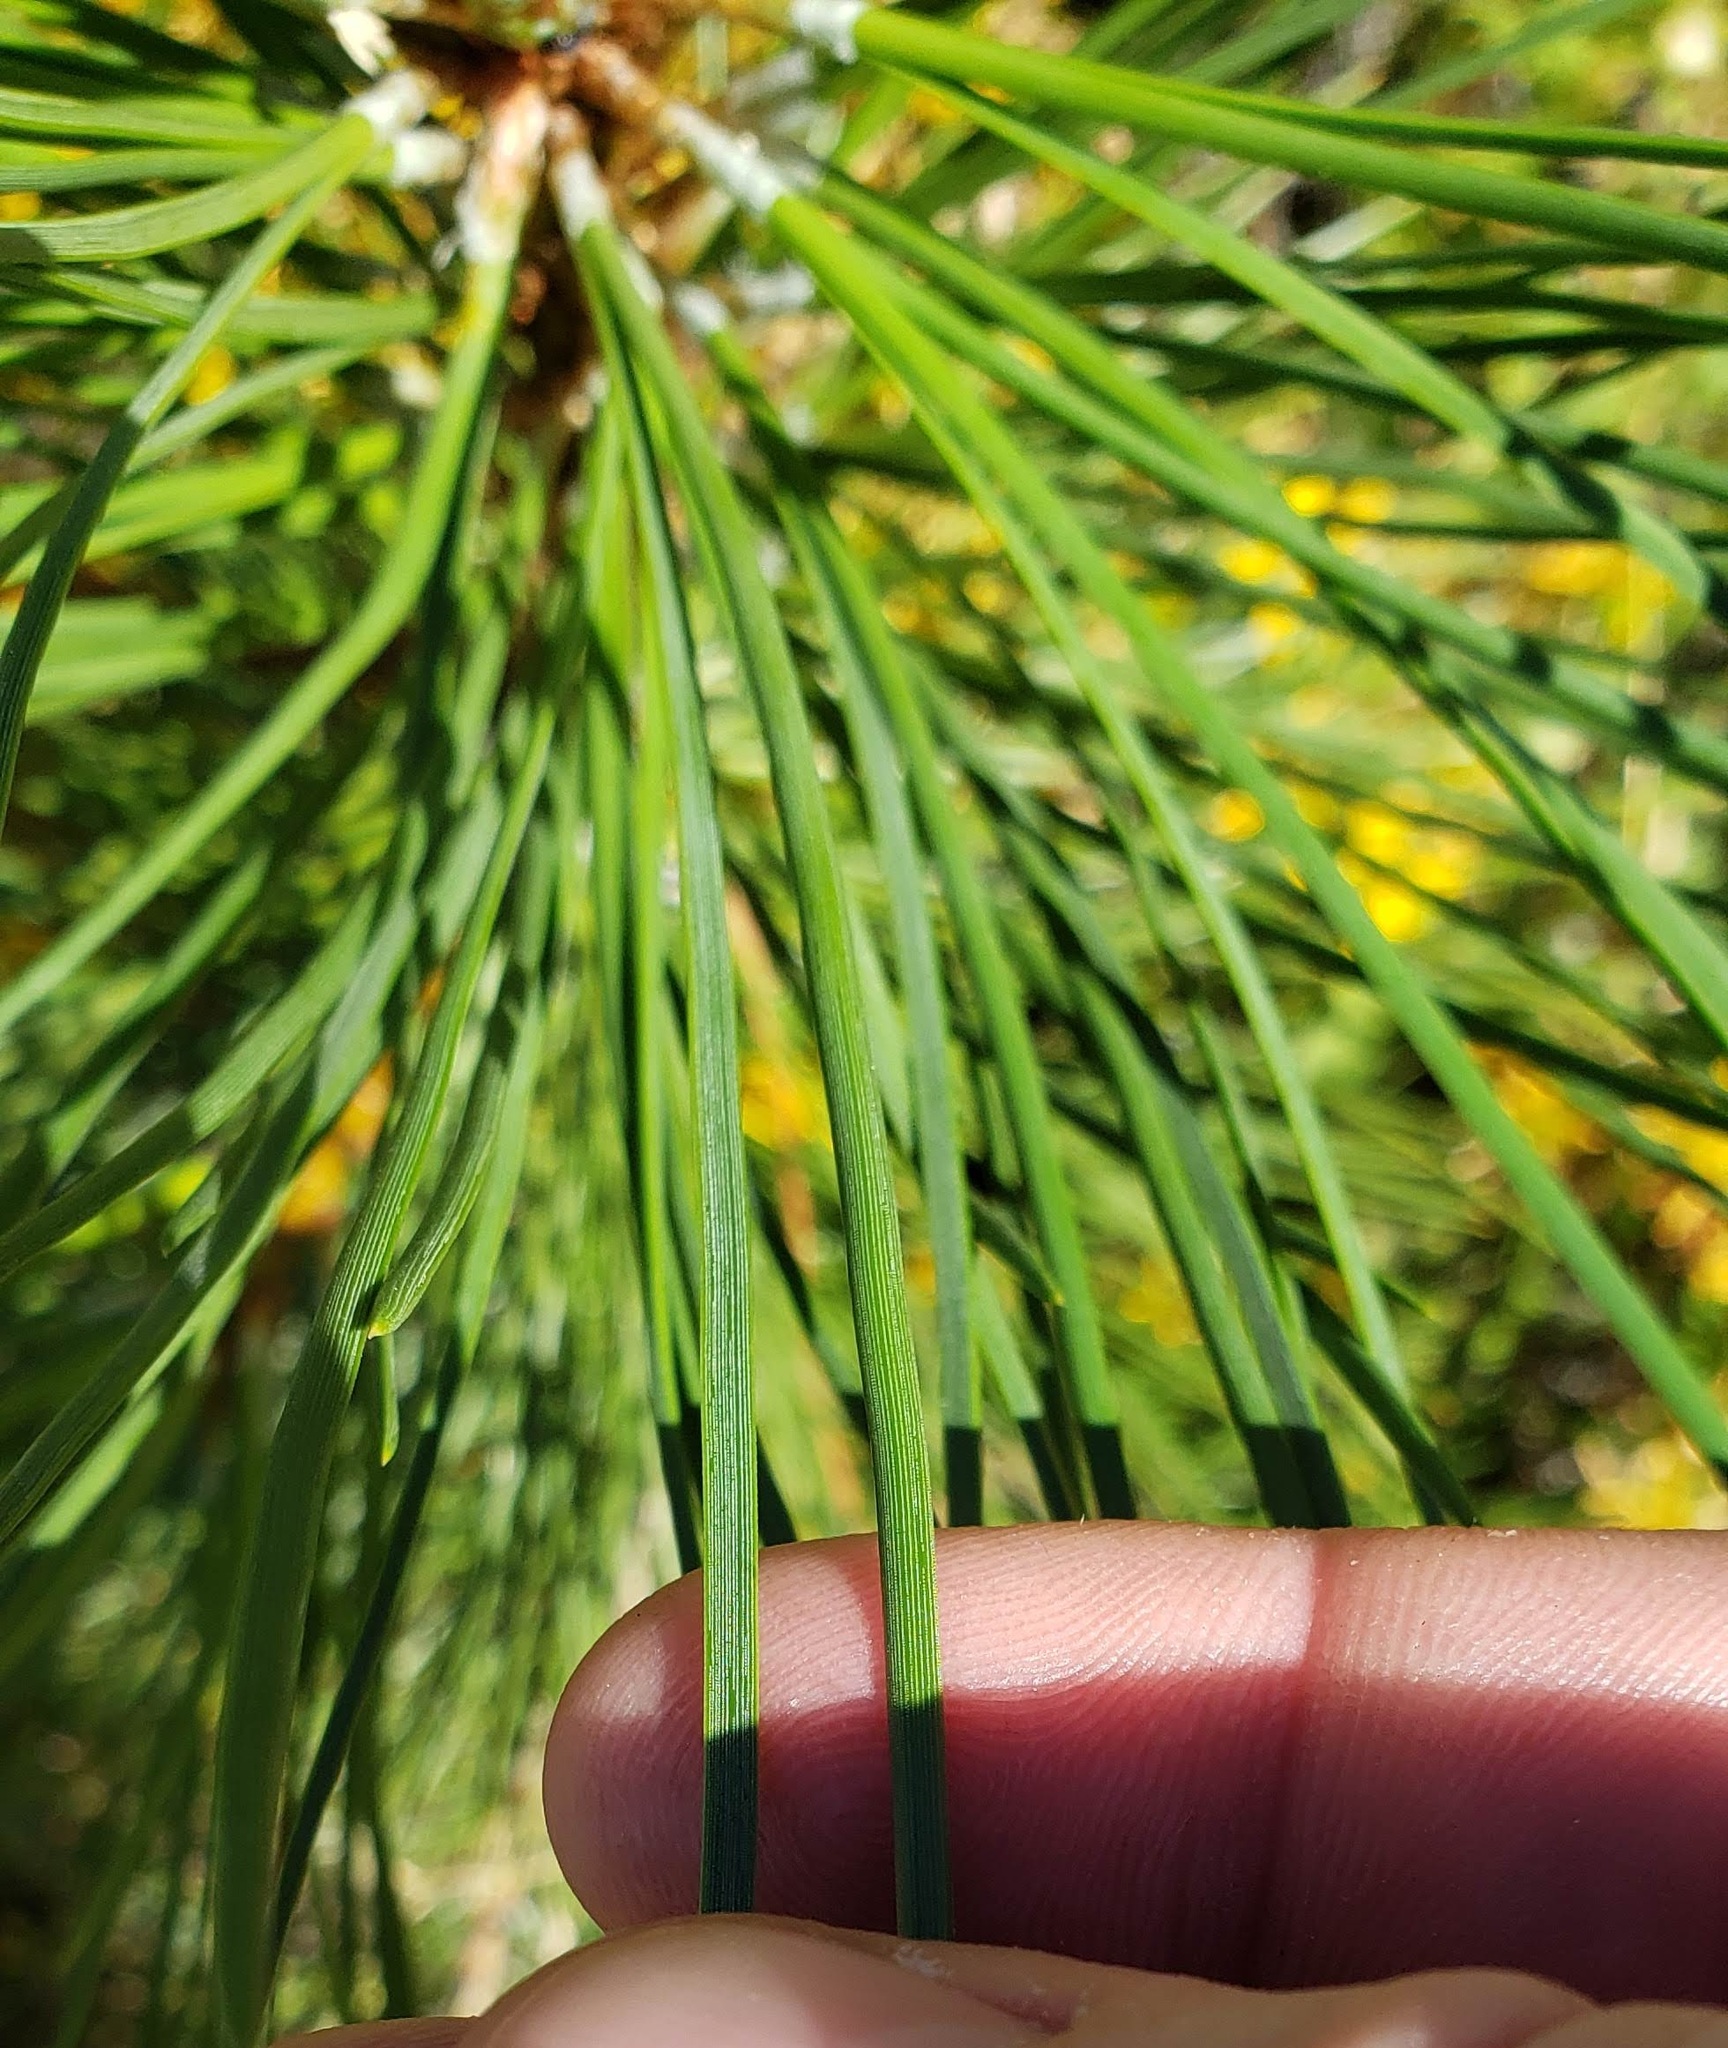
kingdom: Plantae
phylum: Tracheophyta
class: Pinopsida
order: Pinales
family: Pinaceae
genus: Pinus
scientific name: Pinus ponderosa
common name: Western yellow-pine
